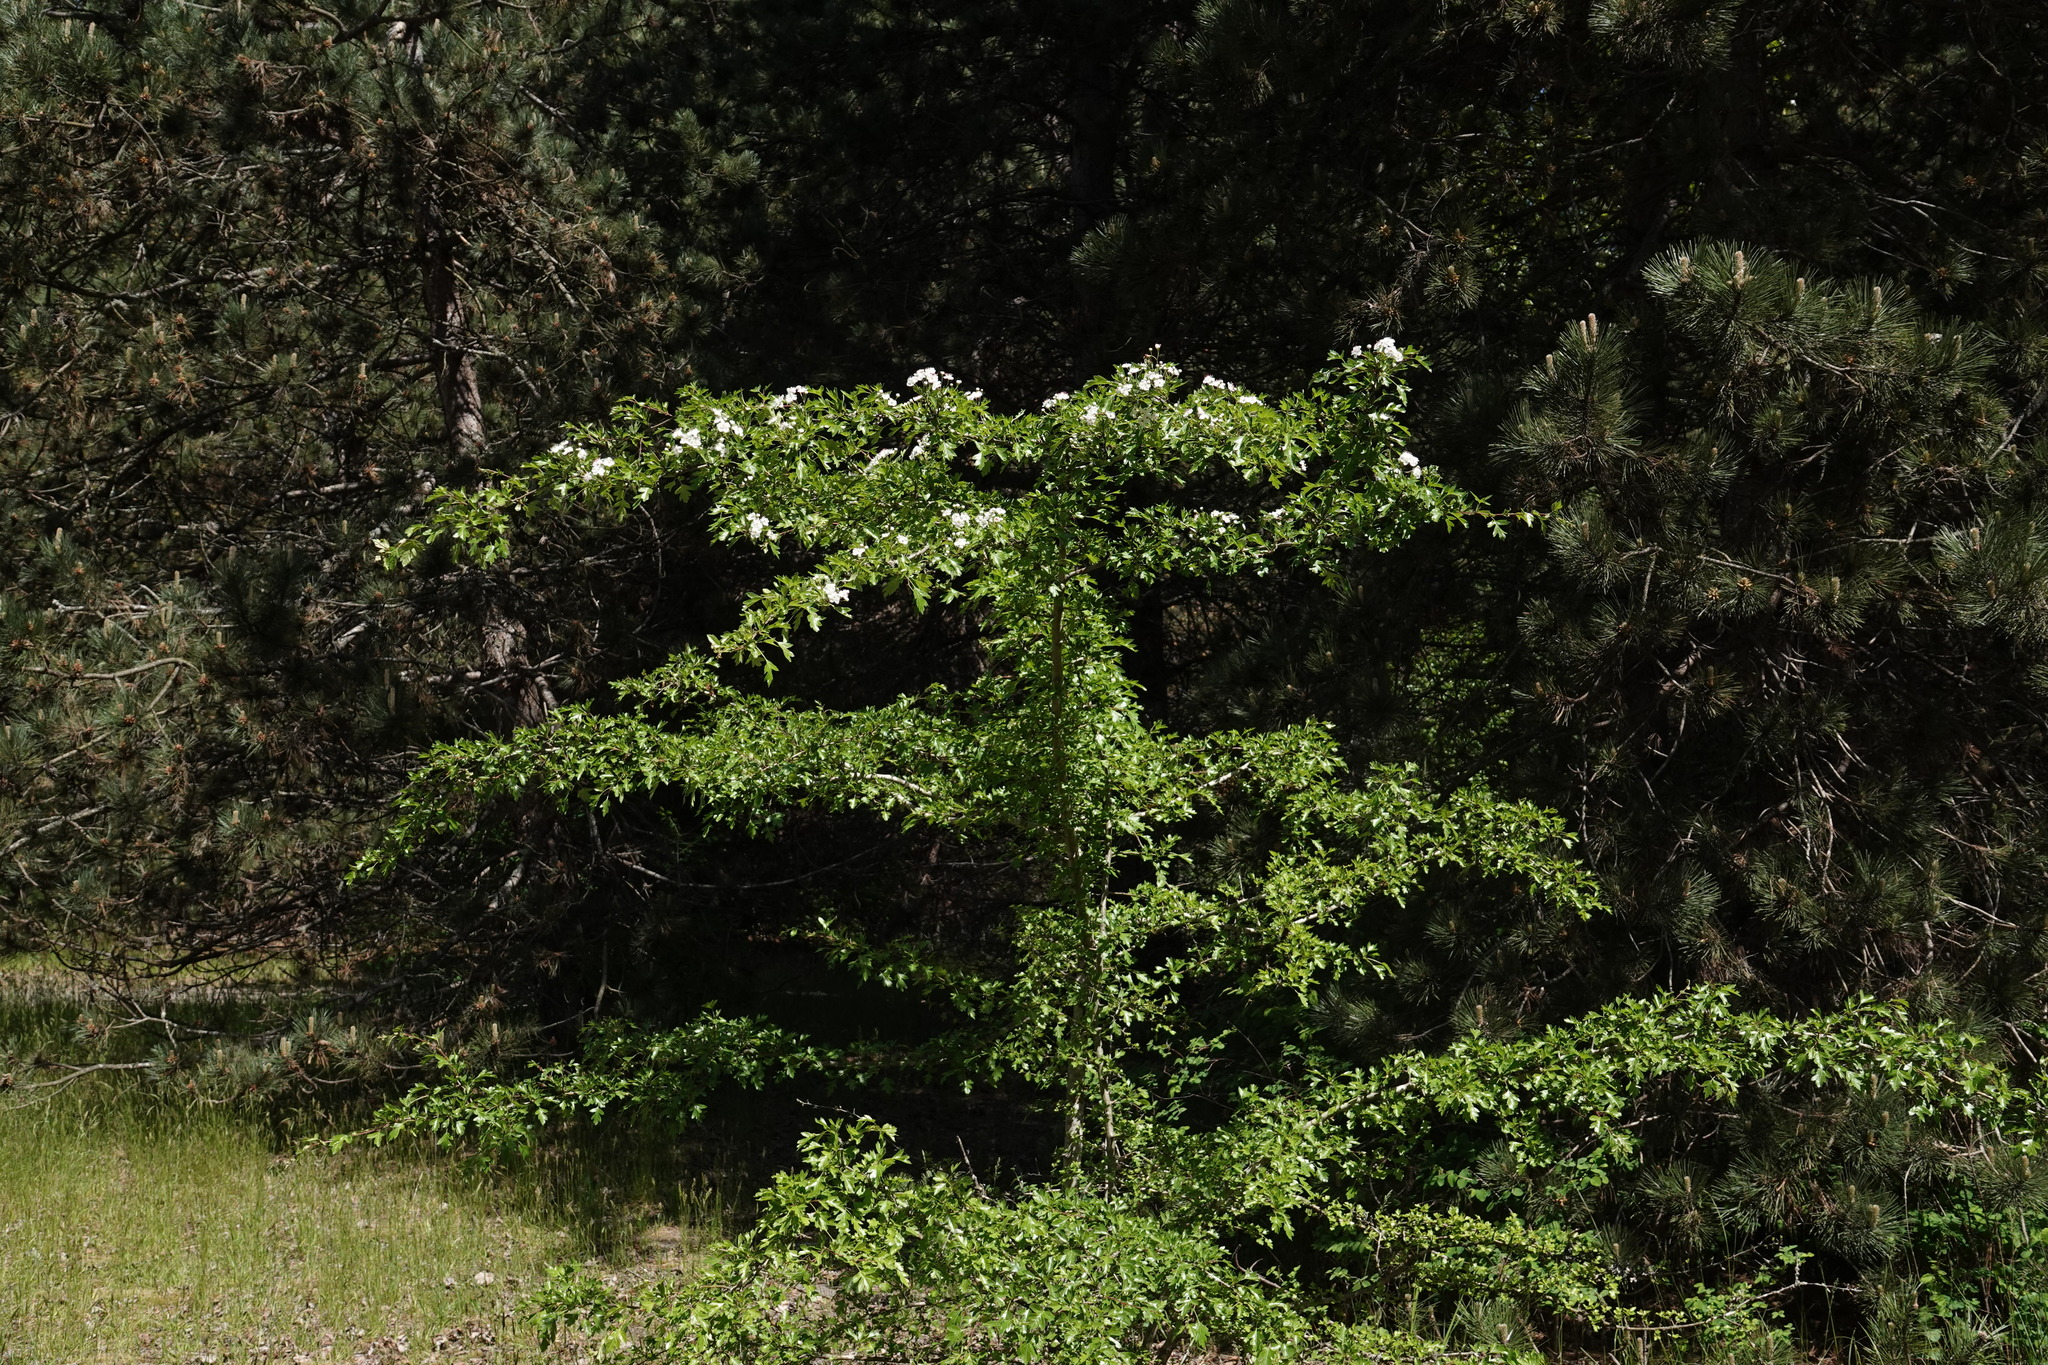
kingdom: Plantae
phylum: Tracheophyta
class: Magnoliopsida
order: Rosales
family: Rosaceae
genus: Crataegus
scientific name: Crataegus monogyna
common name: Hawthorn
